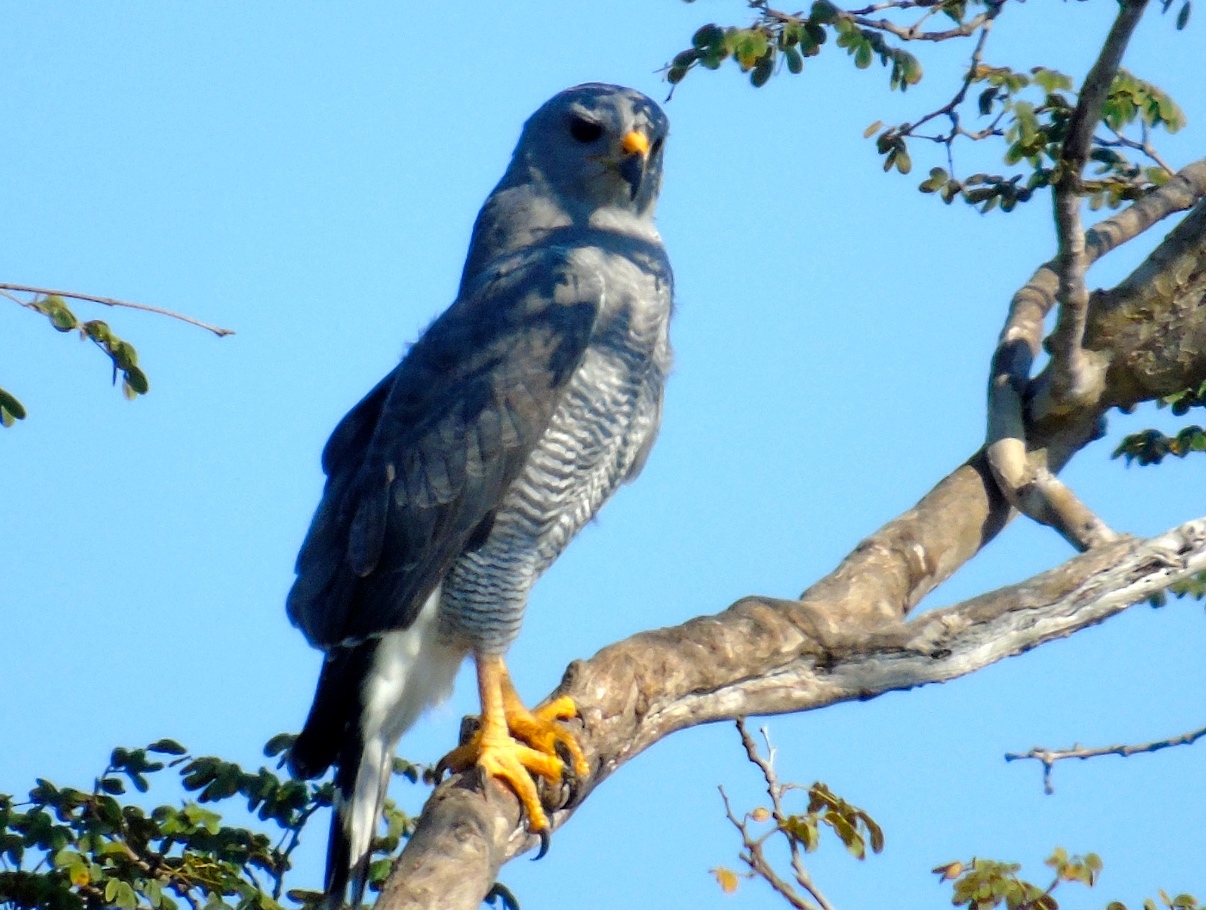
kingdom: Animalia
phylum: Chordata
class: Aves
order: Accipitriformes
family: Accipitridae
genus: Buteo
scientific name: Buteo nitidus
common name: Grey-lined hawk
